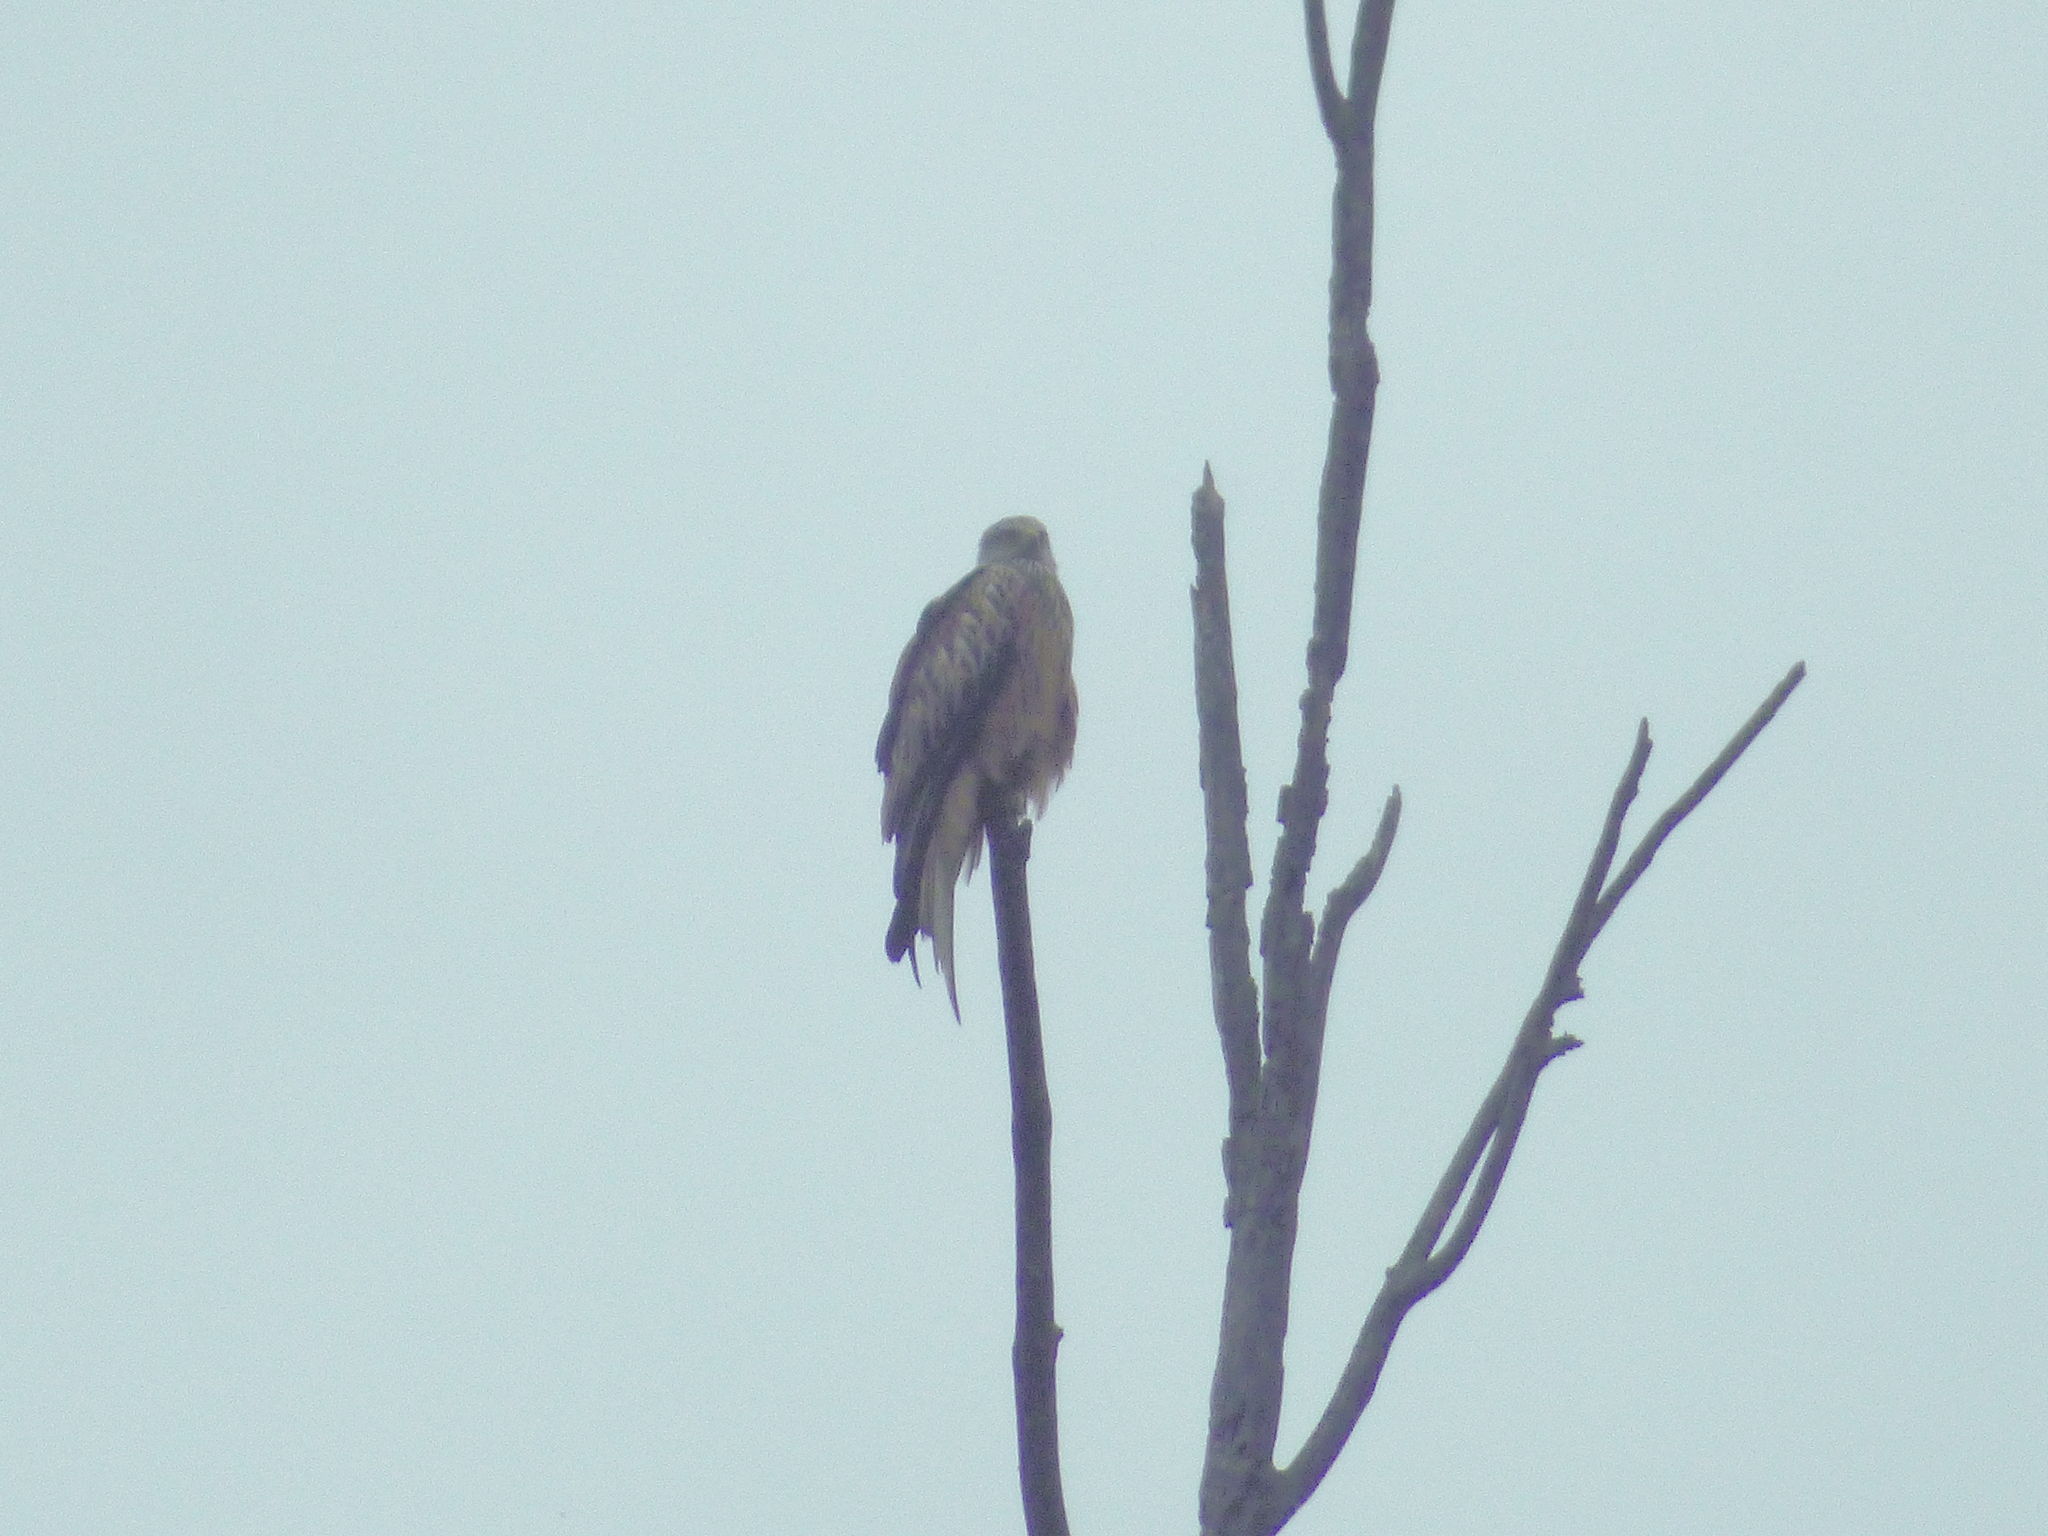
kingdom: Animalia
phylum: Chordata
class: Aves
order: Accipitriformes
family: Accipitridae
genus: Milvus
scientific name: Milvus milvus
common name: Red kite
